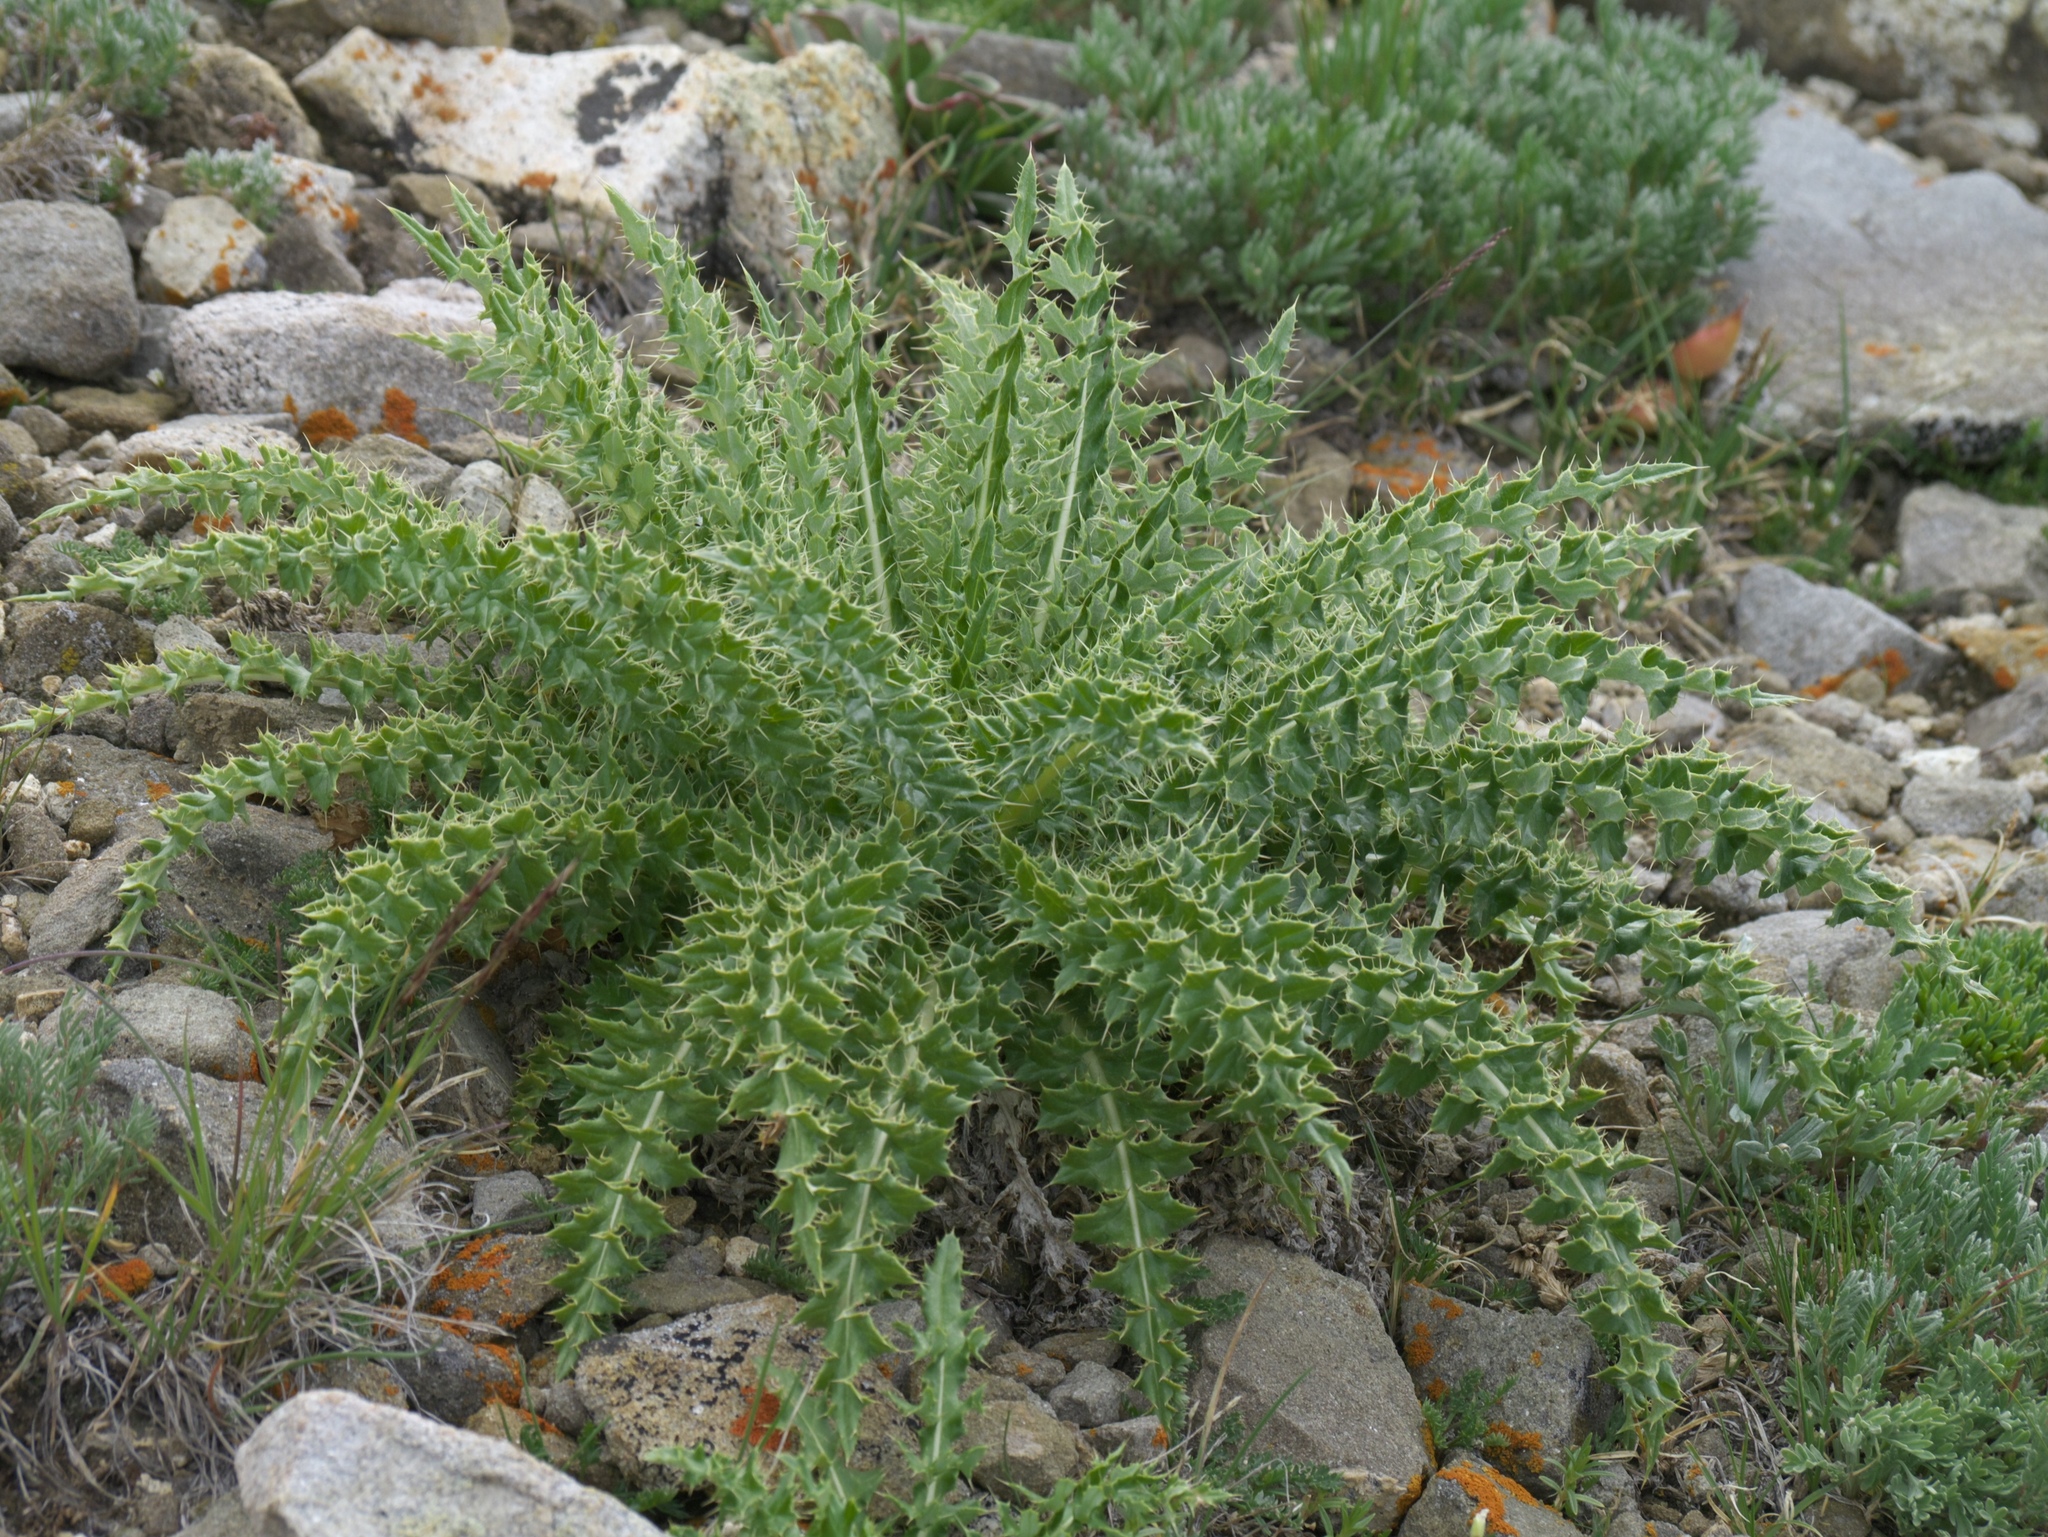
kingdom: Plantae
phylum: Tracheophyta
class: Magnoliopsida
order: Asterales
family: Asteraceae
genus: Cirsium
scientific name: Cirsium scopulorum
